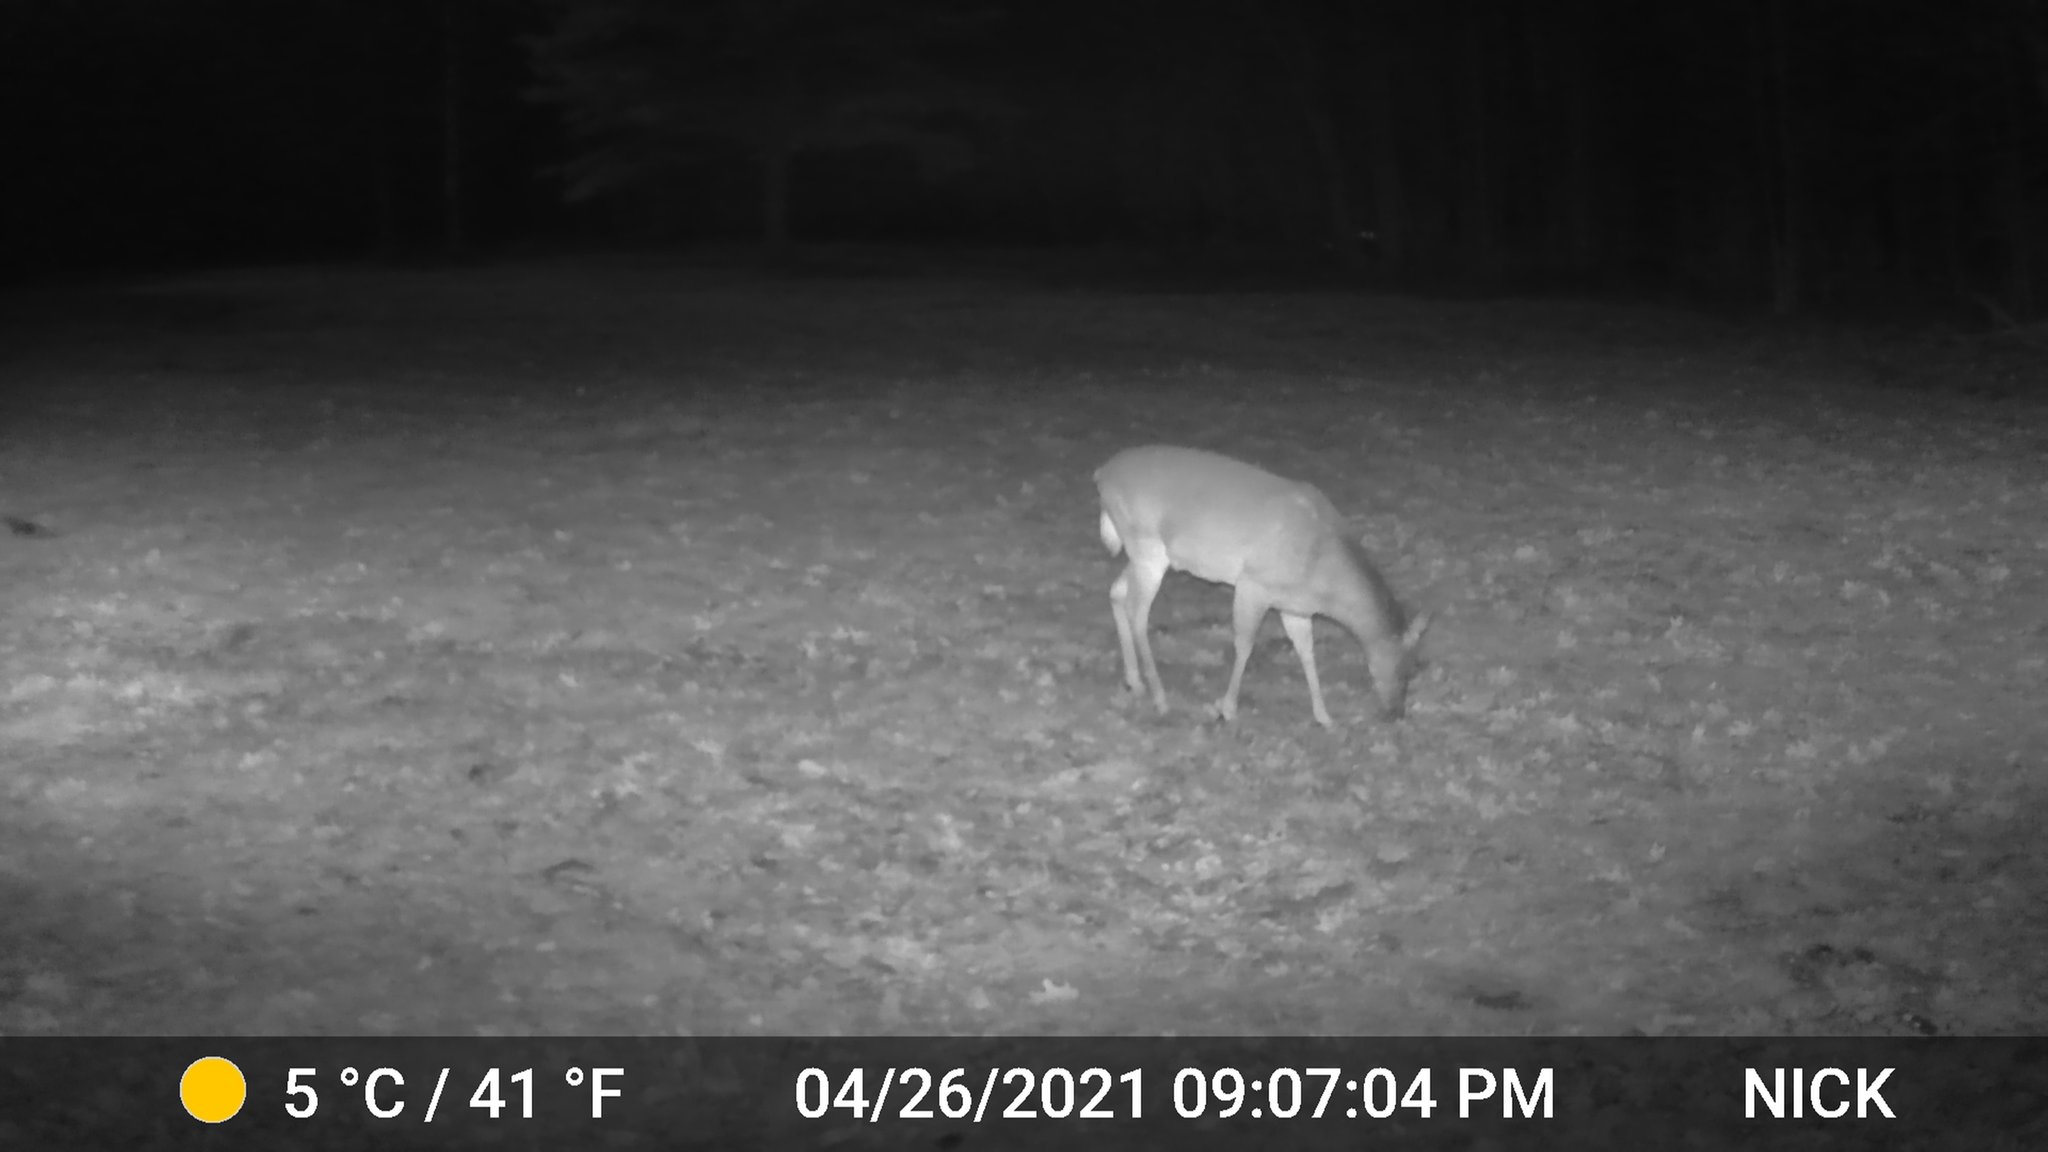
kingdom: Animalia
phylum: Chordata
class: Mammalia
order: Artiodactyla
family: Cervidae
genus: Odocoileus
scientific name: Odocoileus virginianus
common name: White-tailed deer
